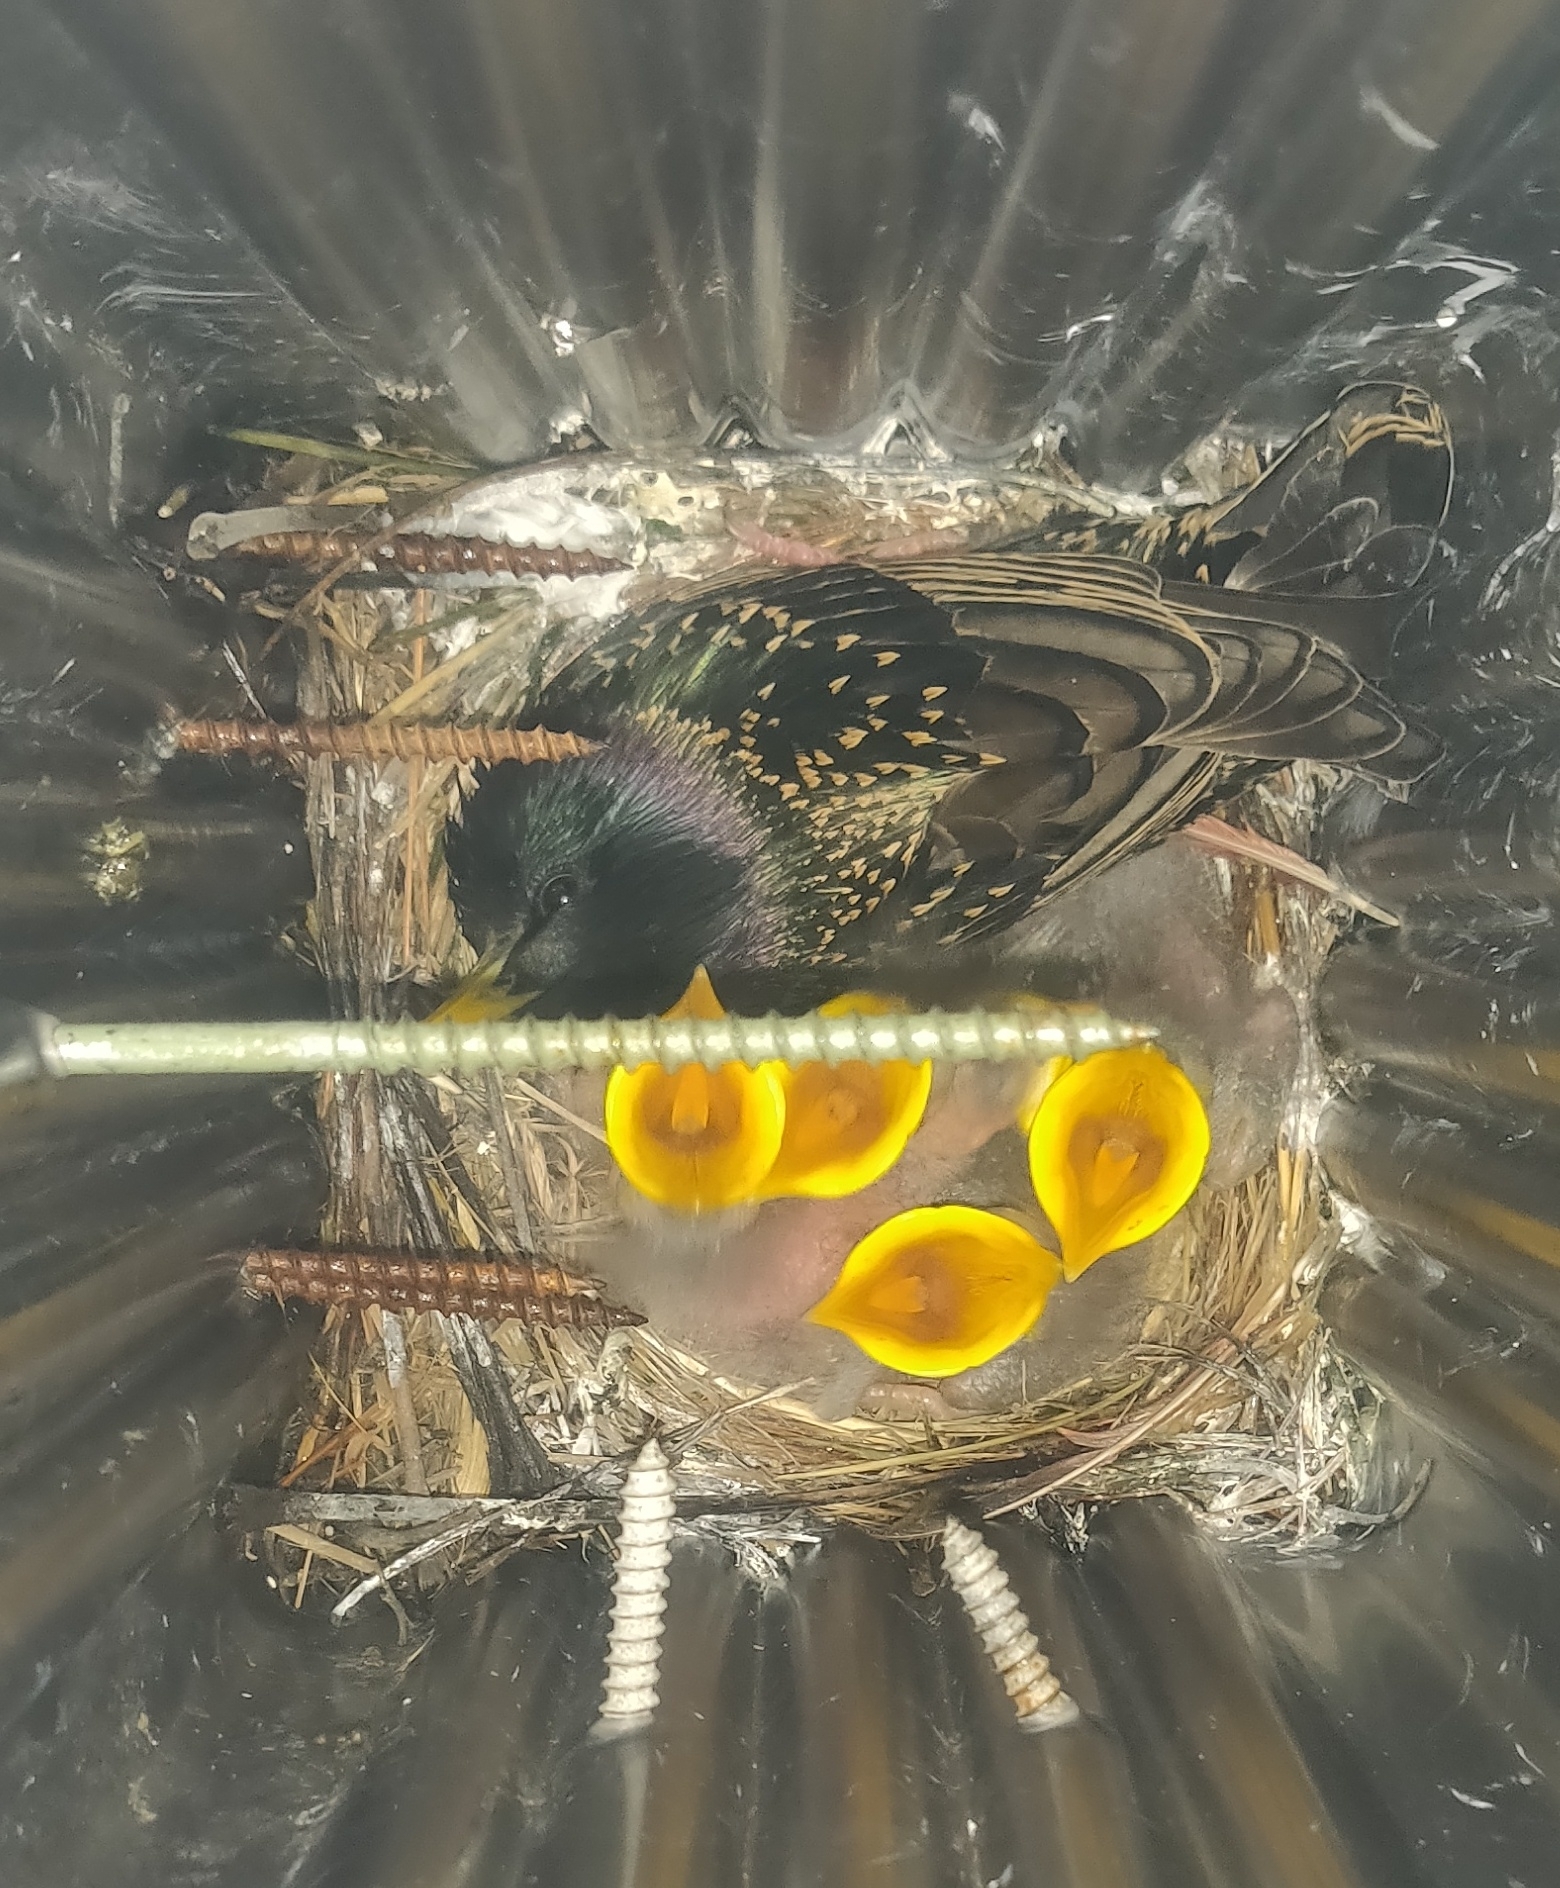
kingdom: Animalia
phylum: Chordata
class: Aves
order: Passeriformes
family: Sturnidae
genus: Sturnus
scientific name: Sturnus vulgaris
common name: Common starling
